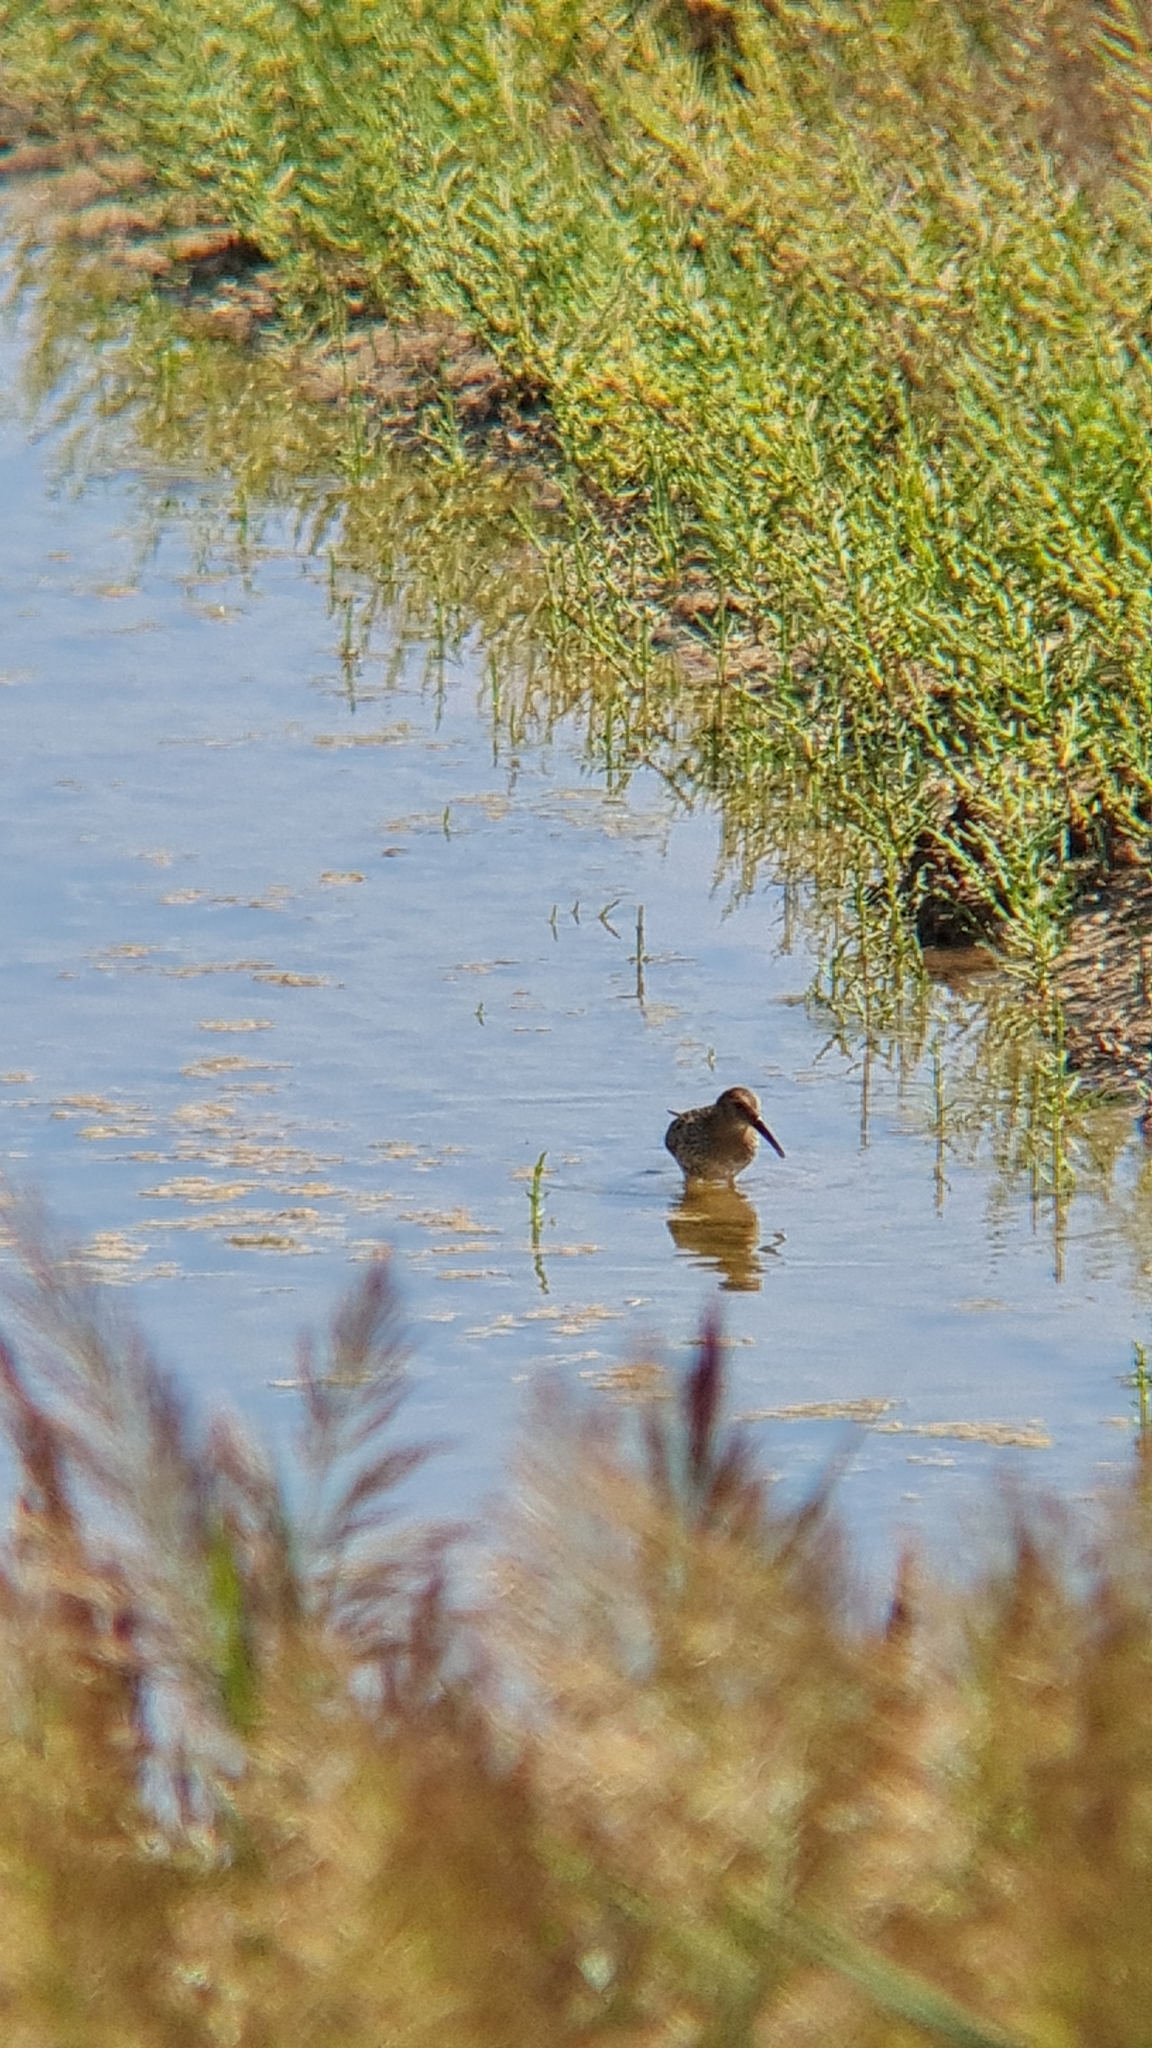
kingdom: Animalia
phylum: Chordata
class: Aves
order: Charadriiformes
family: Scolopacidae
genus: Calidris
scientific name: Calidris alpina
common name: Dunlin
